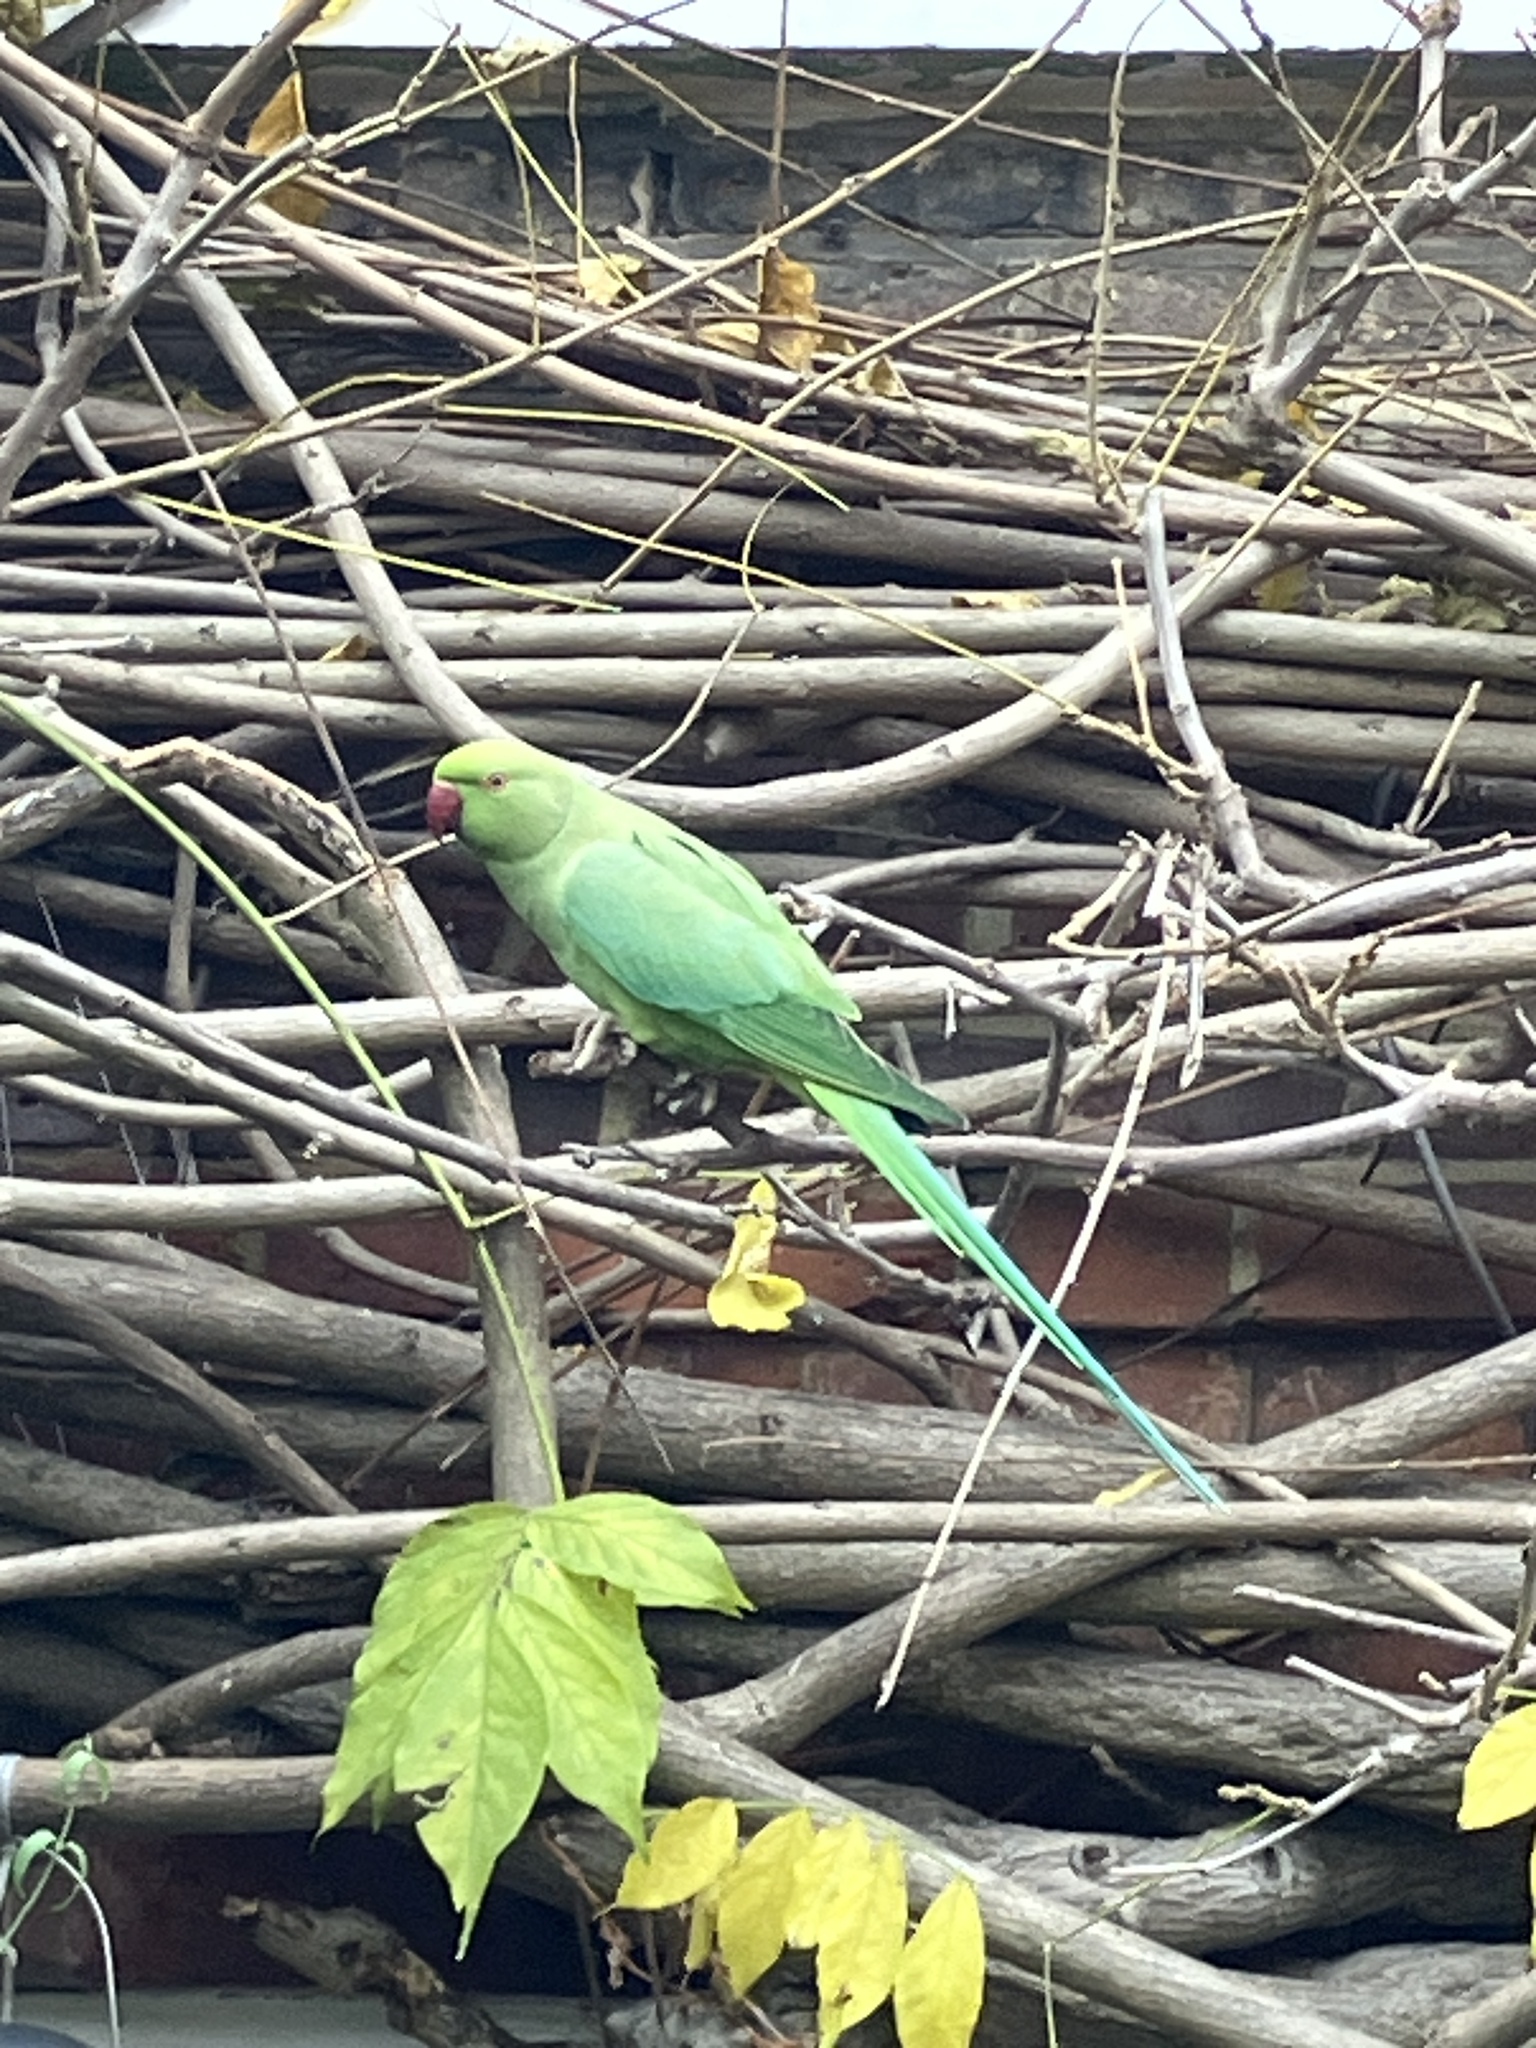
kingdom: Animalia
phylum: Chordata
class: Aves
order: Psittaciformes
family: Psittacidae
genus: Psittacula
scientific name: Psittacula krameri
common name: Rose-ringed parakeet
